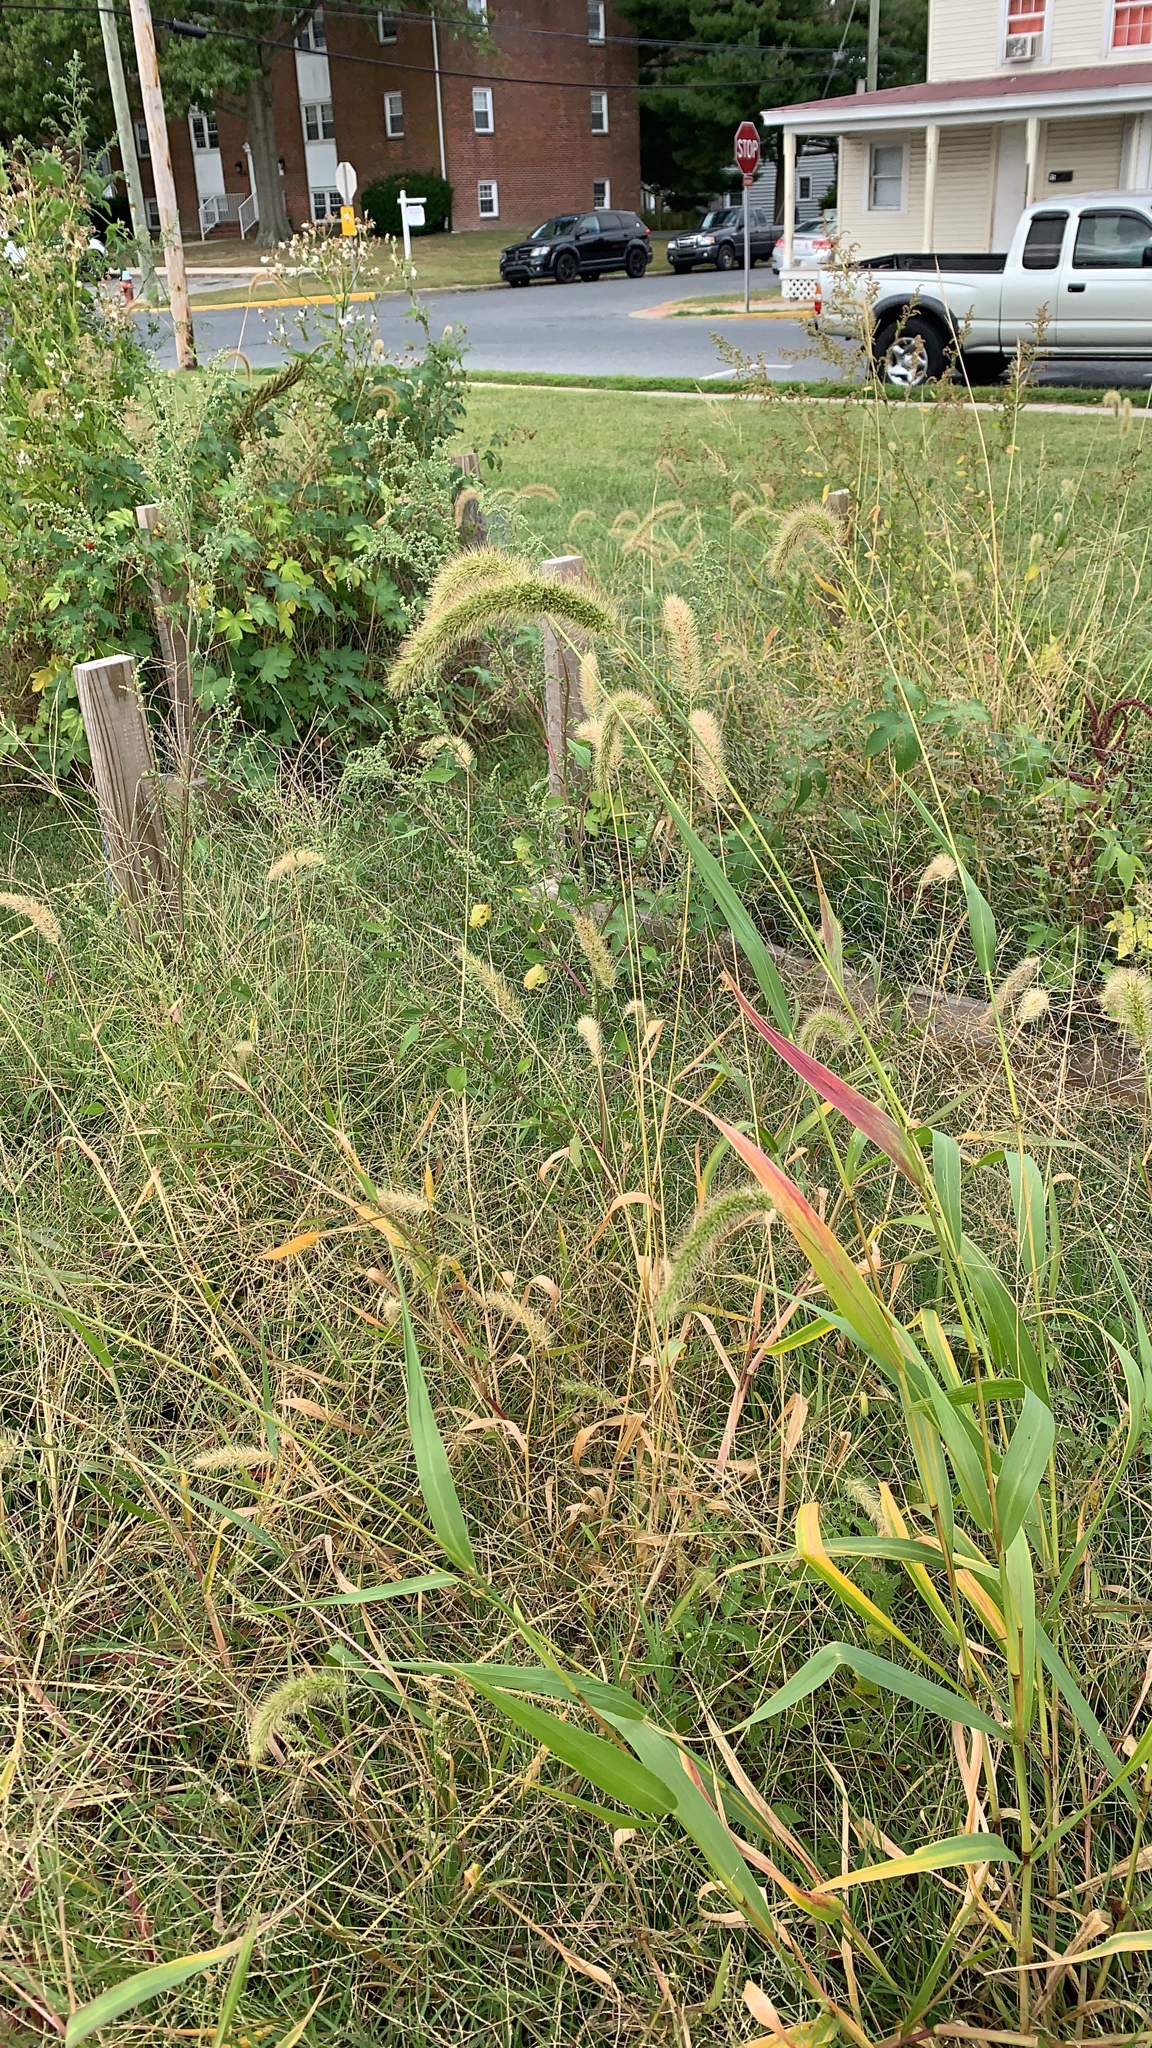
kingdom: Plantae
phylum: Tracheophyta
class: Liliopsida
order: Poales
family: Poaceae
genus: Setaria
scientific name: Setaria faberi
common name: Nodding bristle-grass
